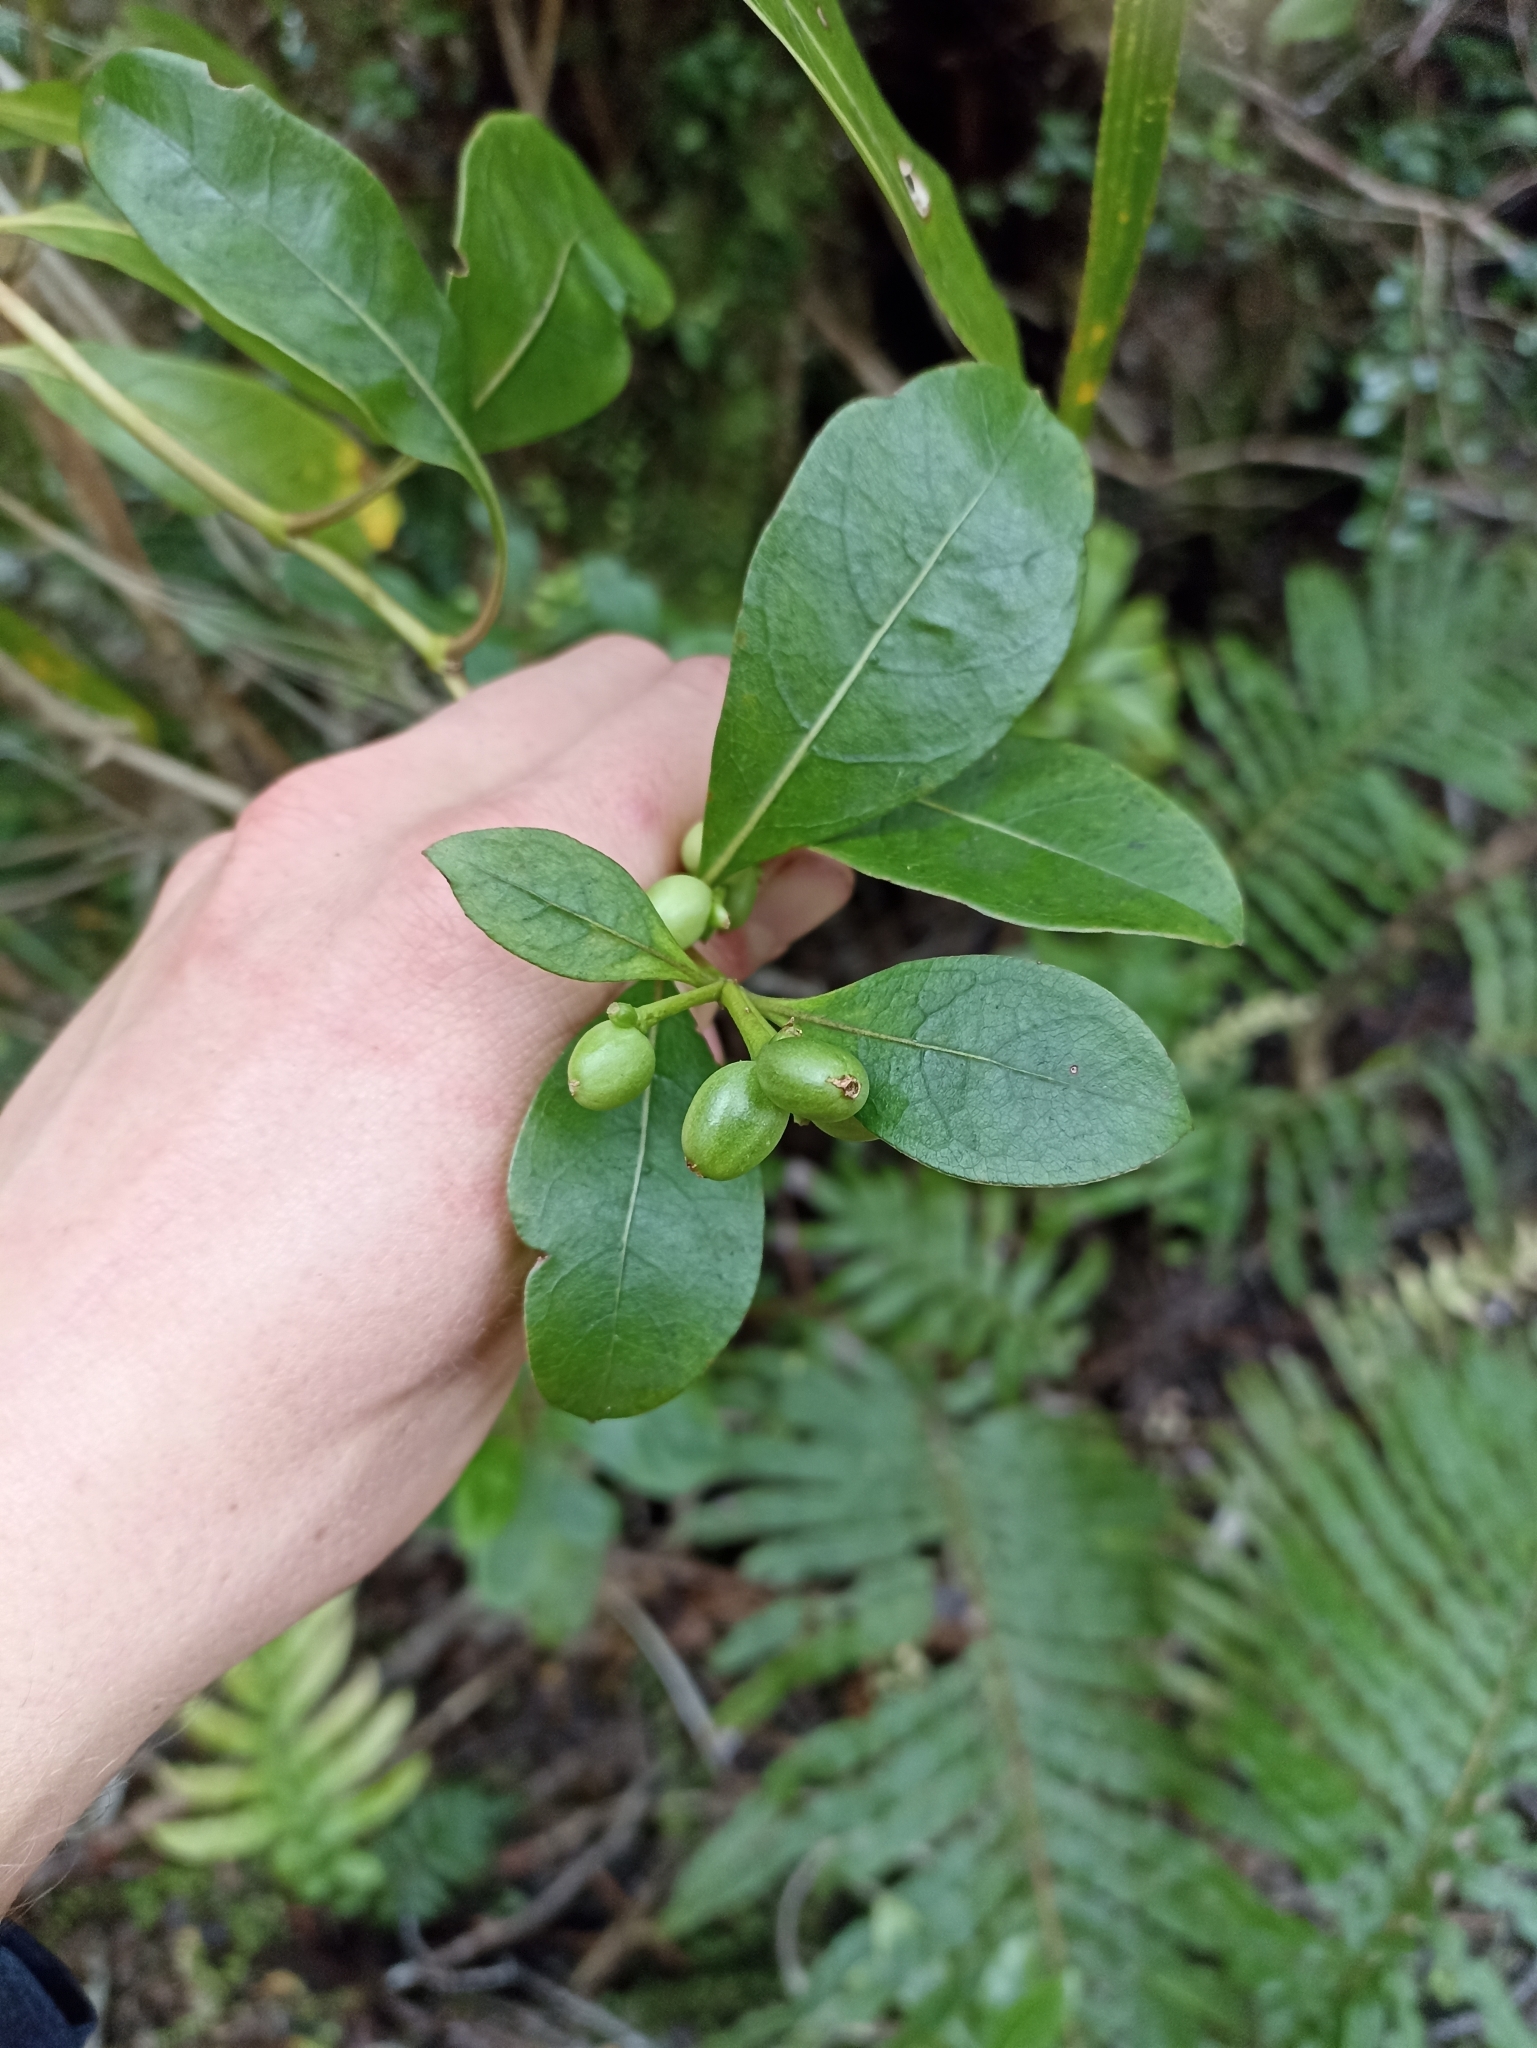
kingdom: Plantae
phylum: Tracheophyta
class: Magnoliopsida
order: Gentianales
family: Rubiaceae
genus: Coprosma
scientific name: Coprosma lucida
